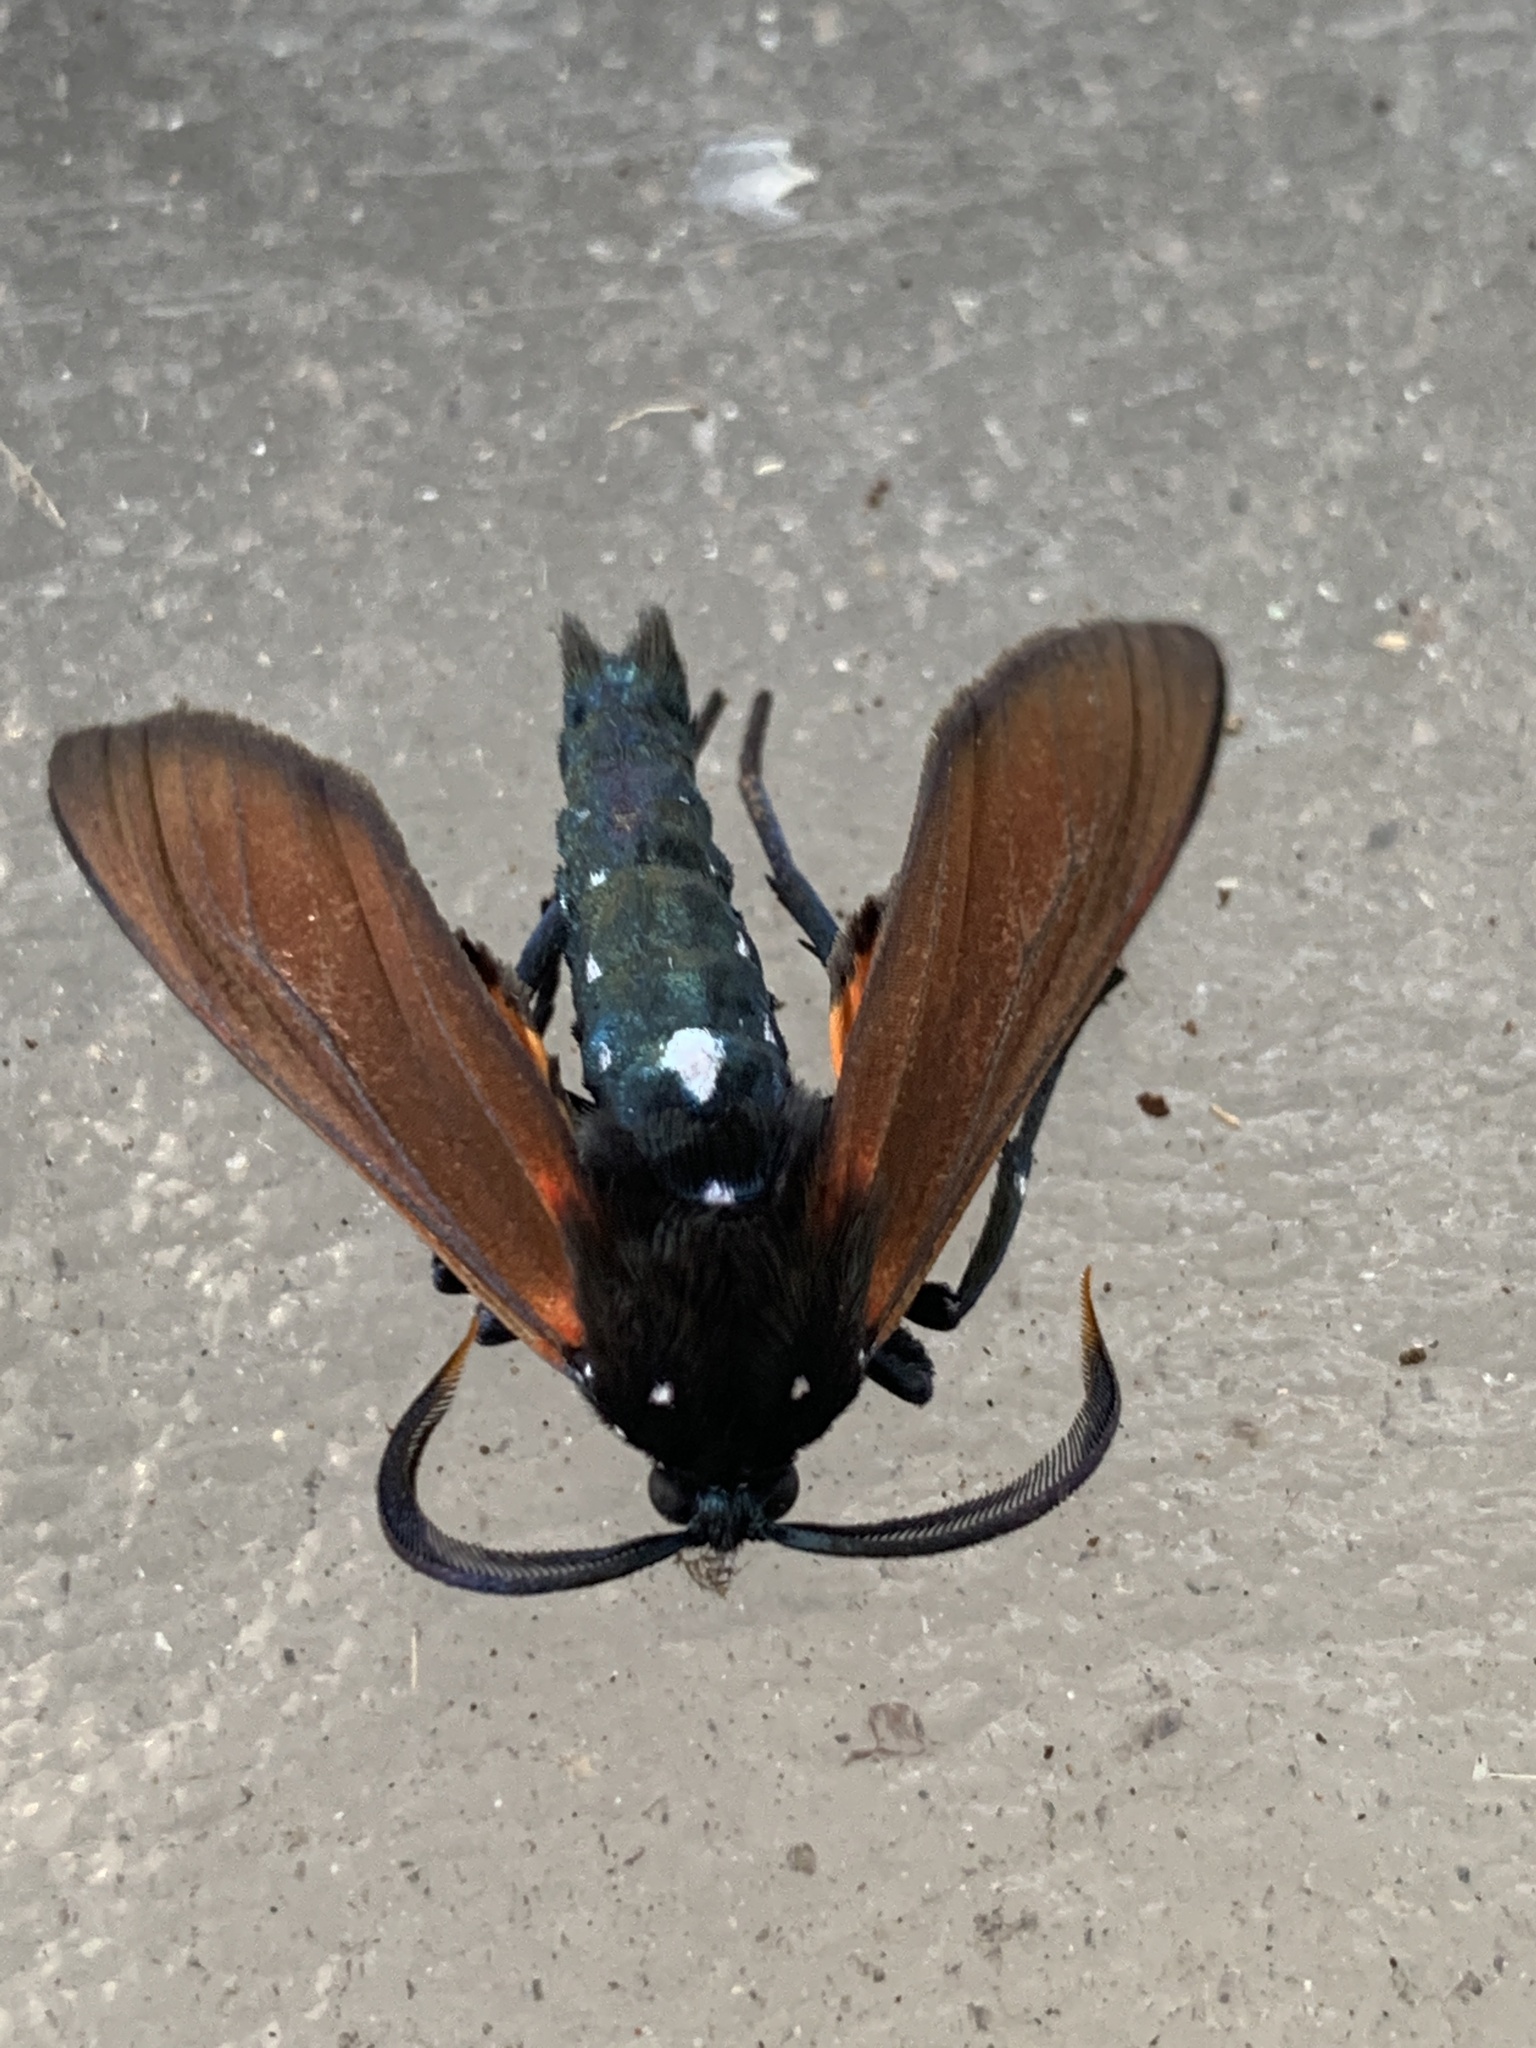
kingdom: Animalia
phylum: Arthropoda
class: Insecta
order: Lepidoptera
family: Erebidae
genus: Empyreuma
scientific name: Empyreuma pugione
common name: Spotted oleander caterpillar moth
